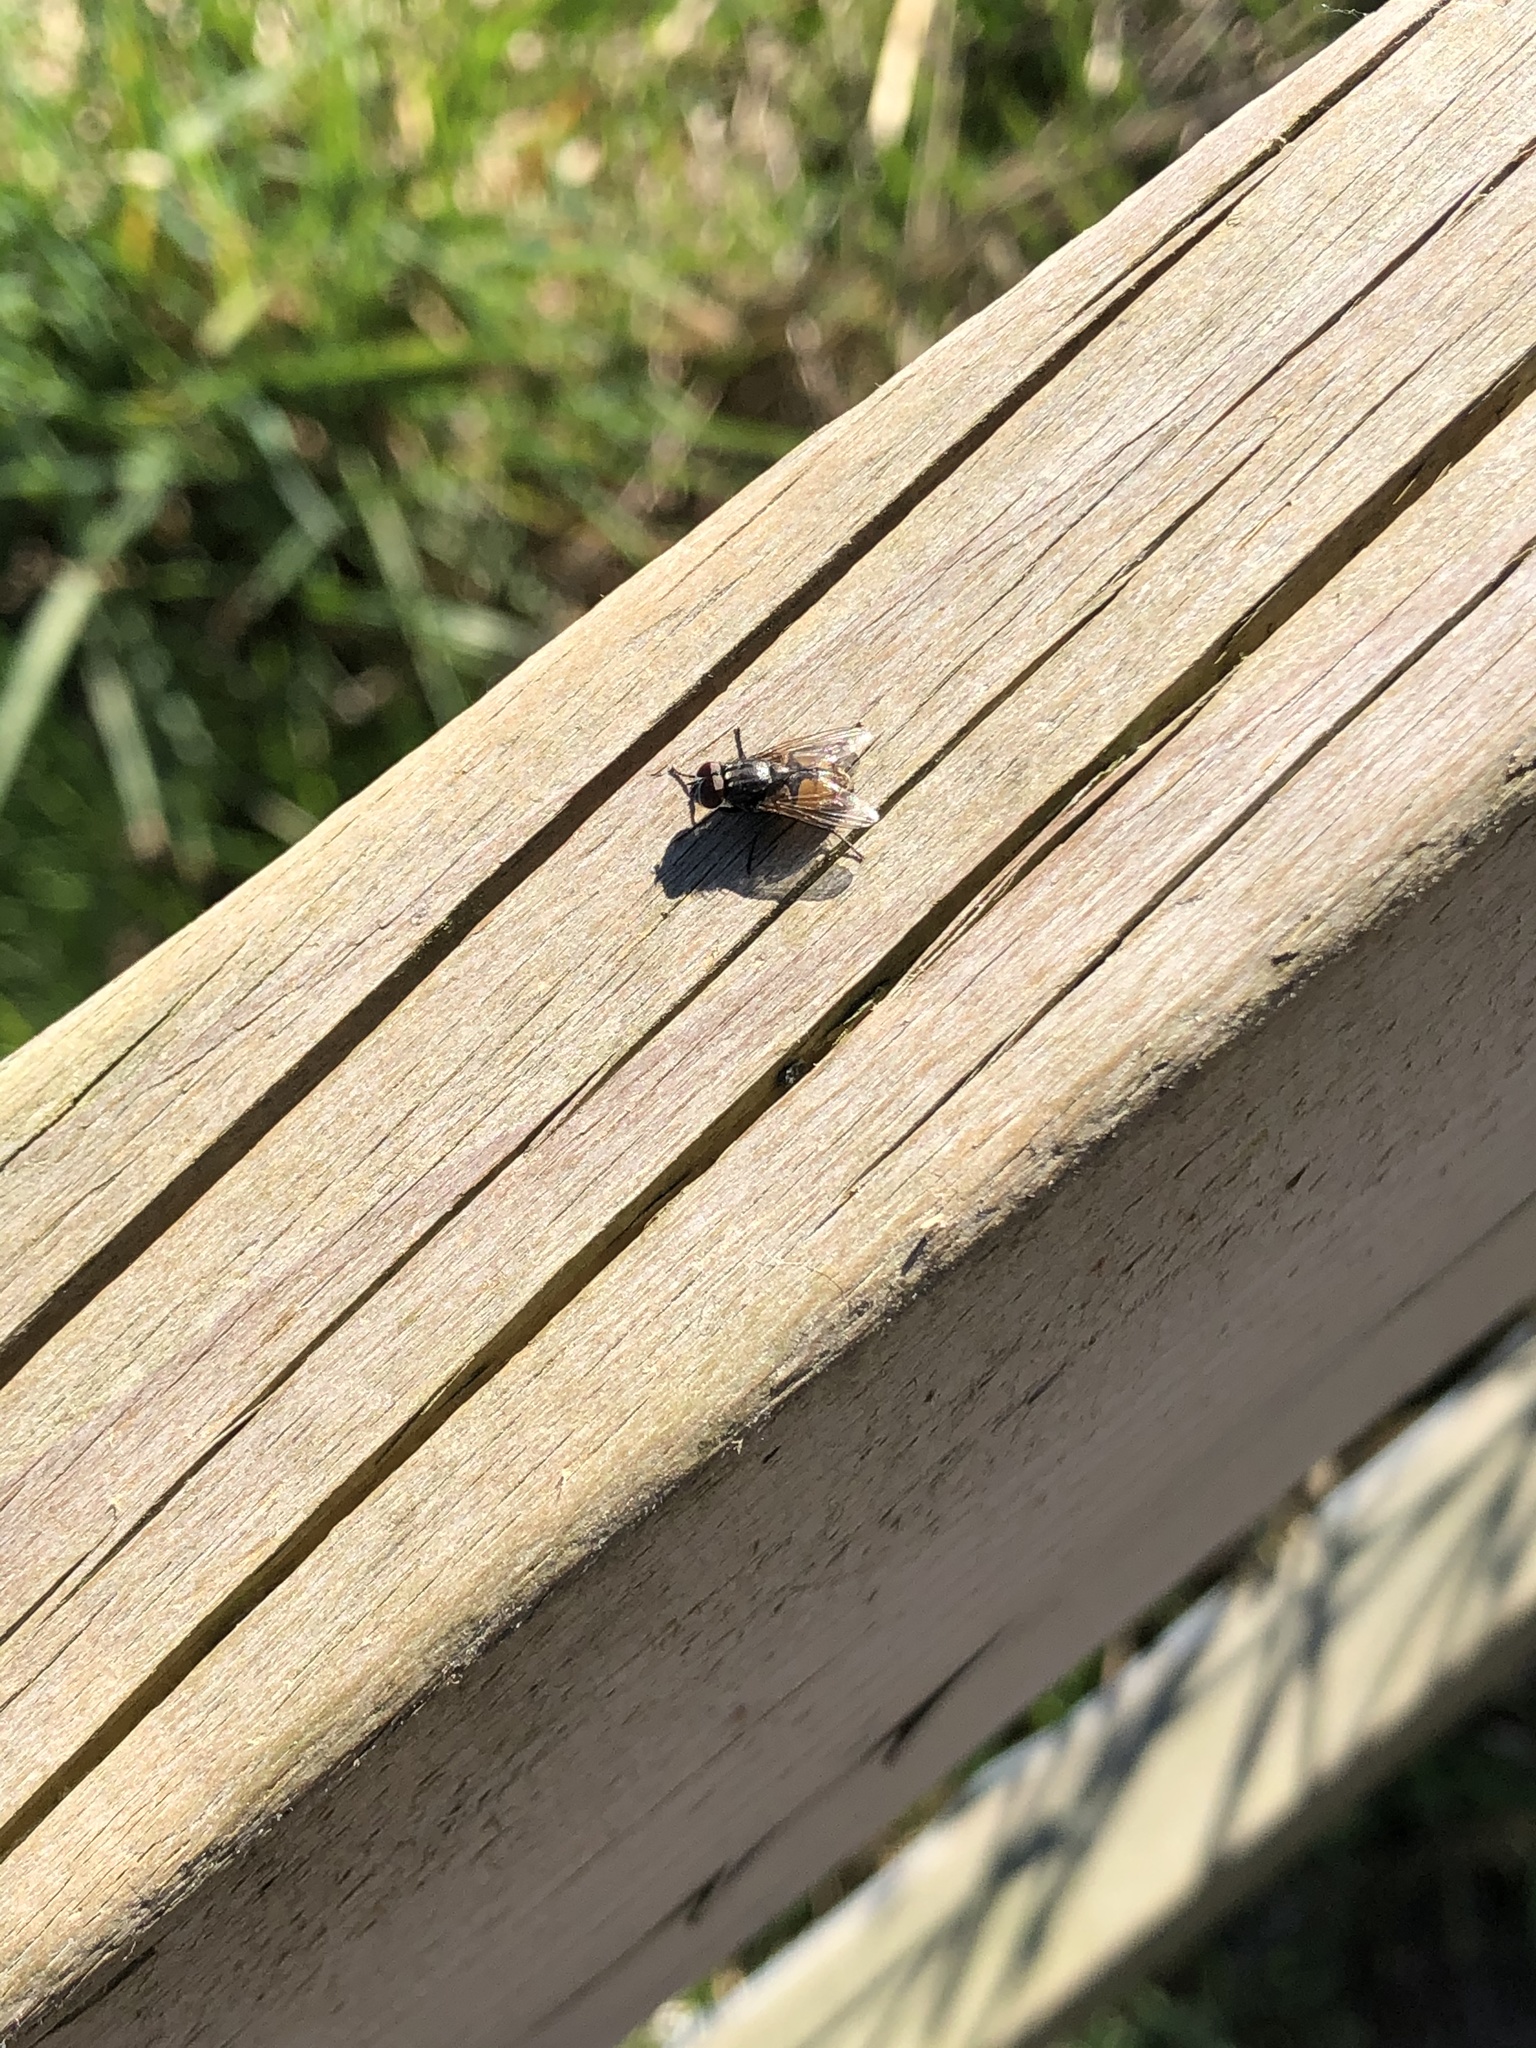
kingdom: Animalia
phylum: Arthropoda
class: Insecta
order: Diptera
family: Muscidae
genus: Musca
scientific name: Musca autumnalis
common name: Face fly
